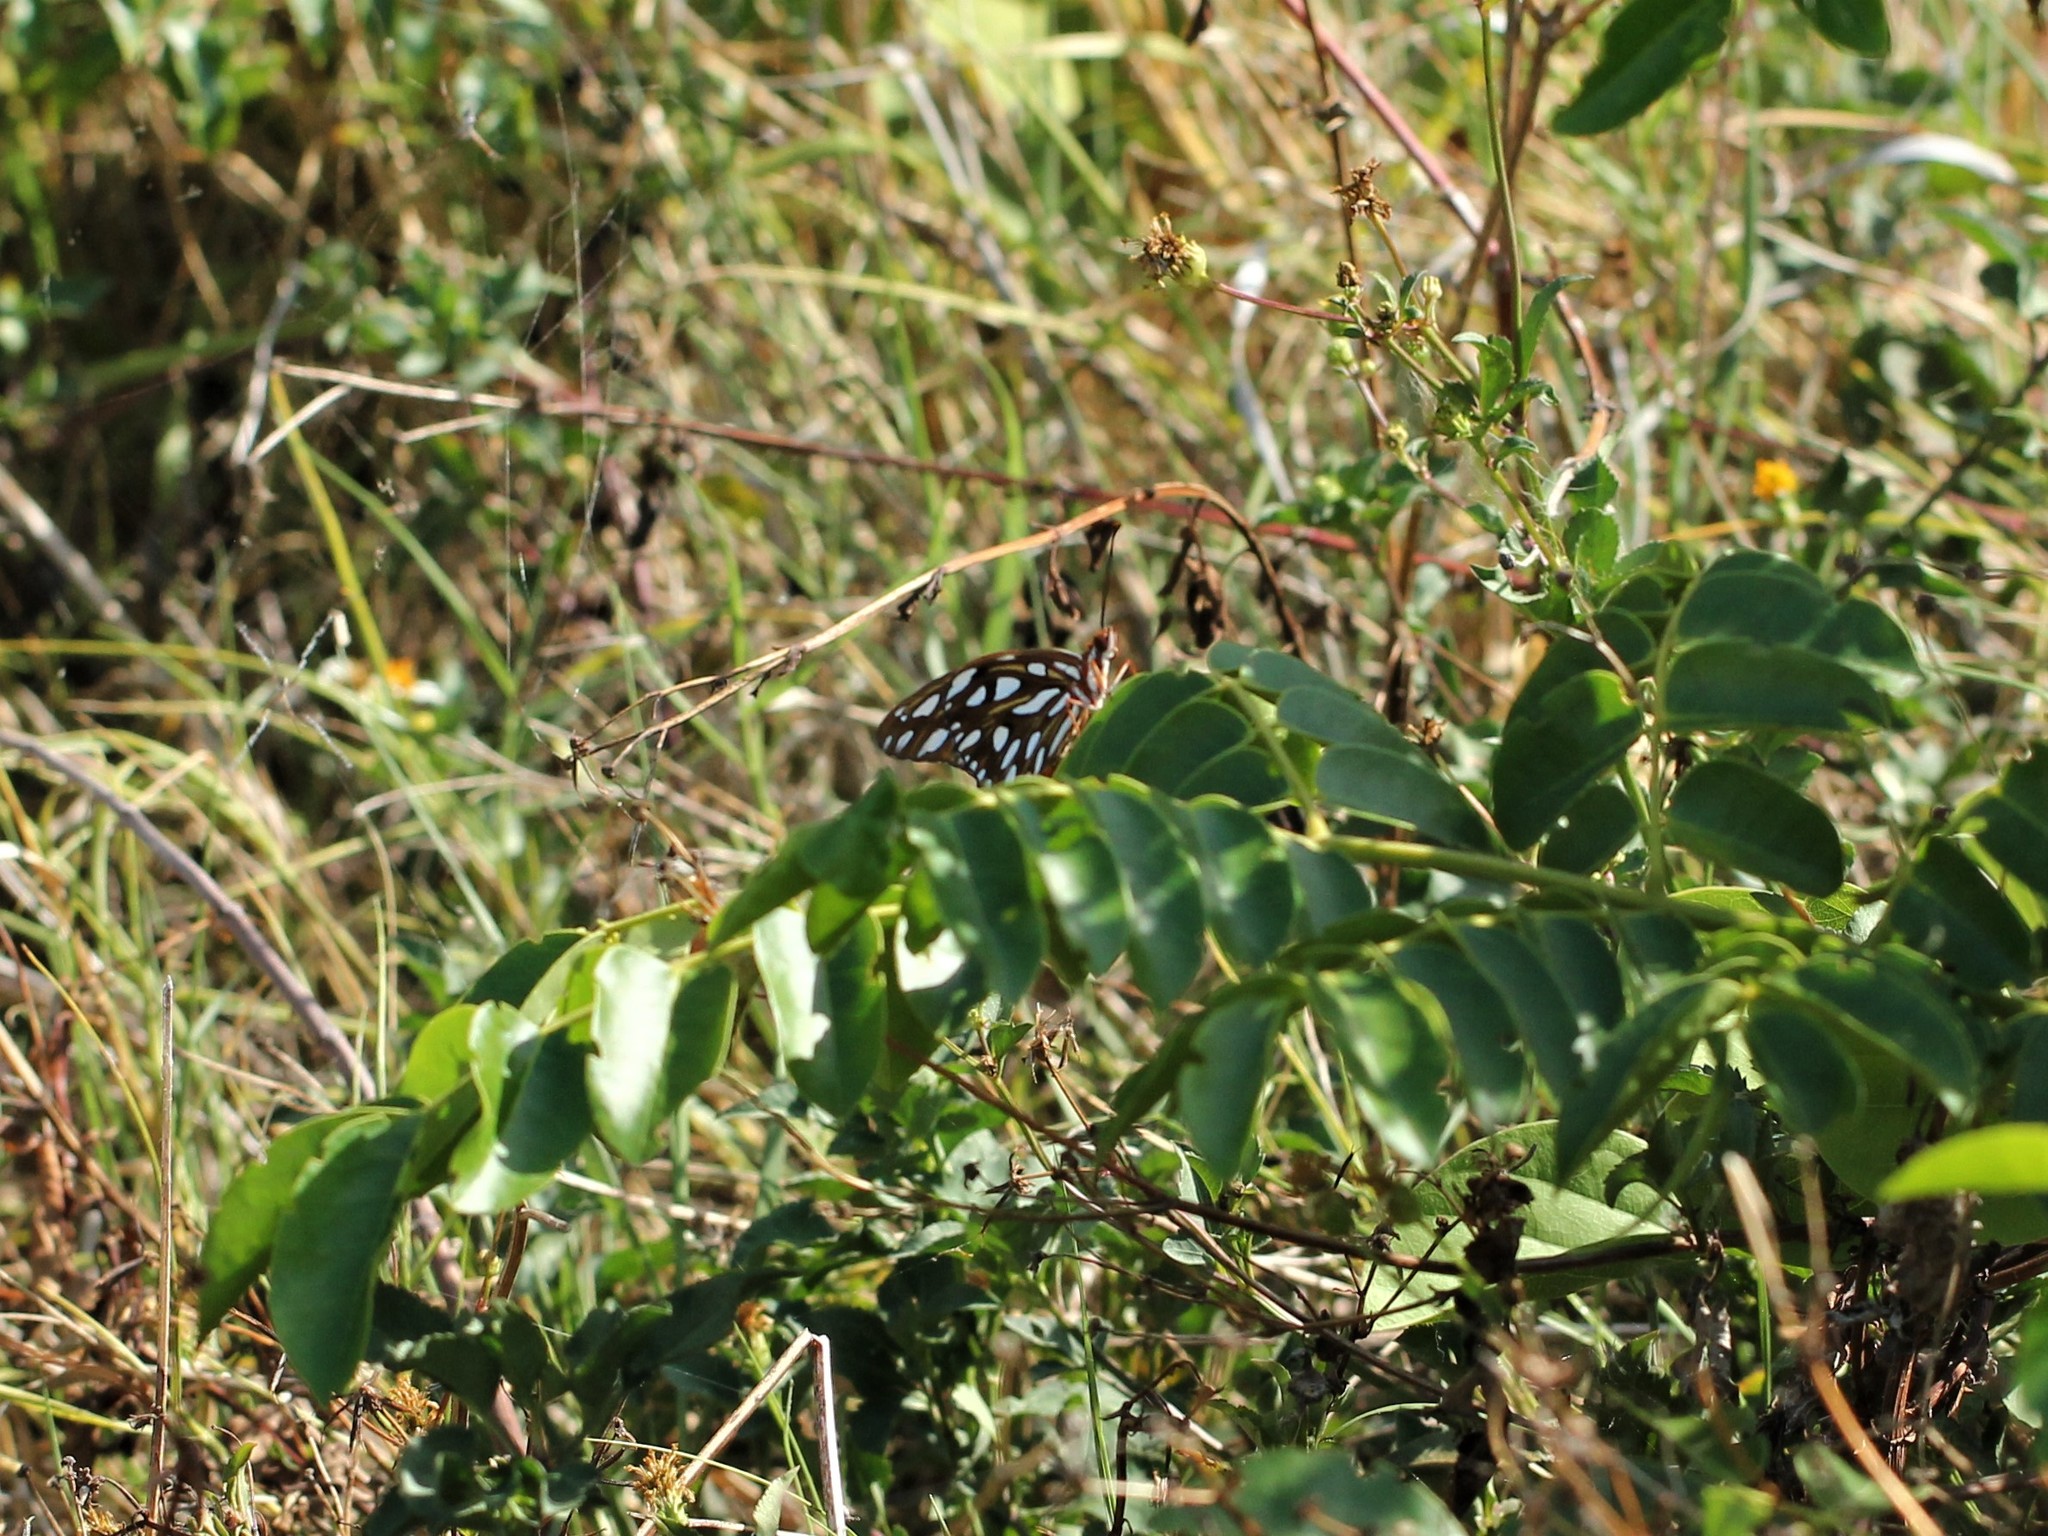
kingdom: Animalia
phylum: Arthropoda
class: Insecta
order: Lepidoptera
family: Nymphalidae
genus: Dione
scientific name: Dione vanillae
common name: Gulf fritillary
